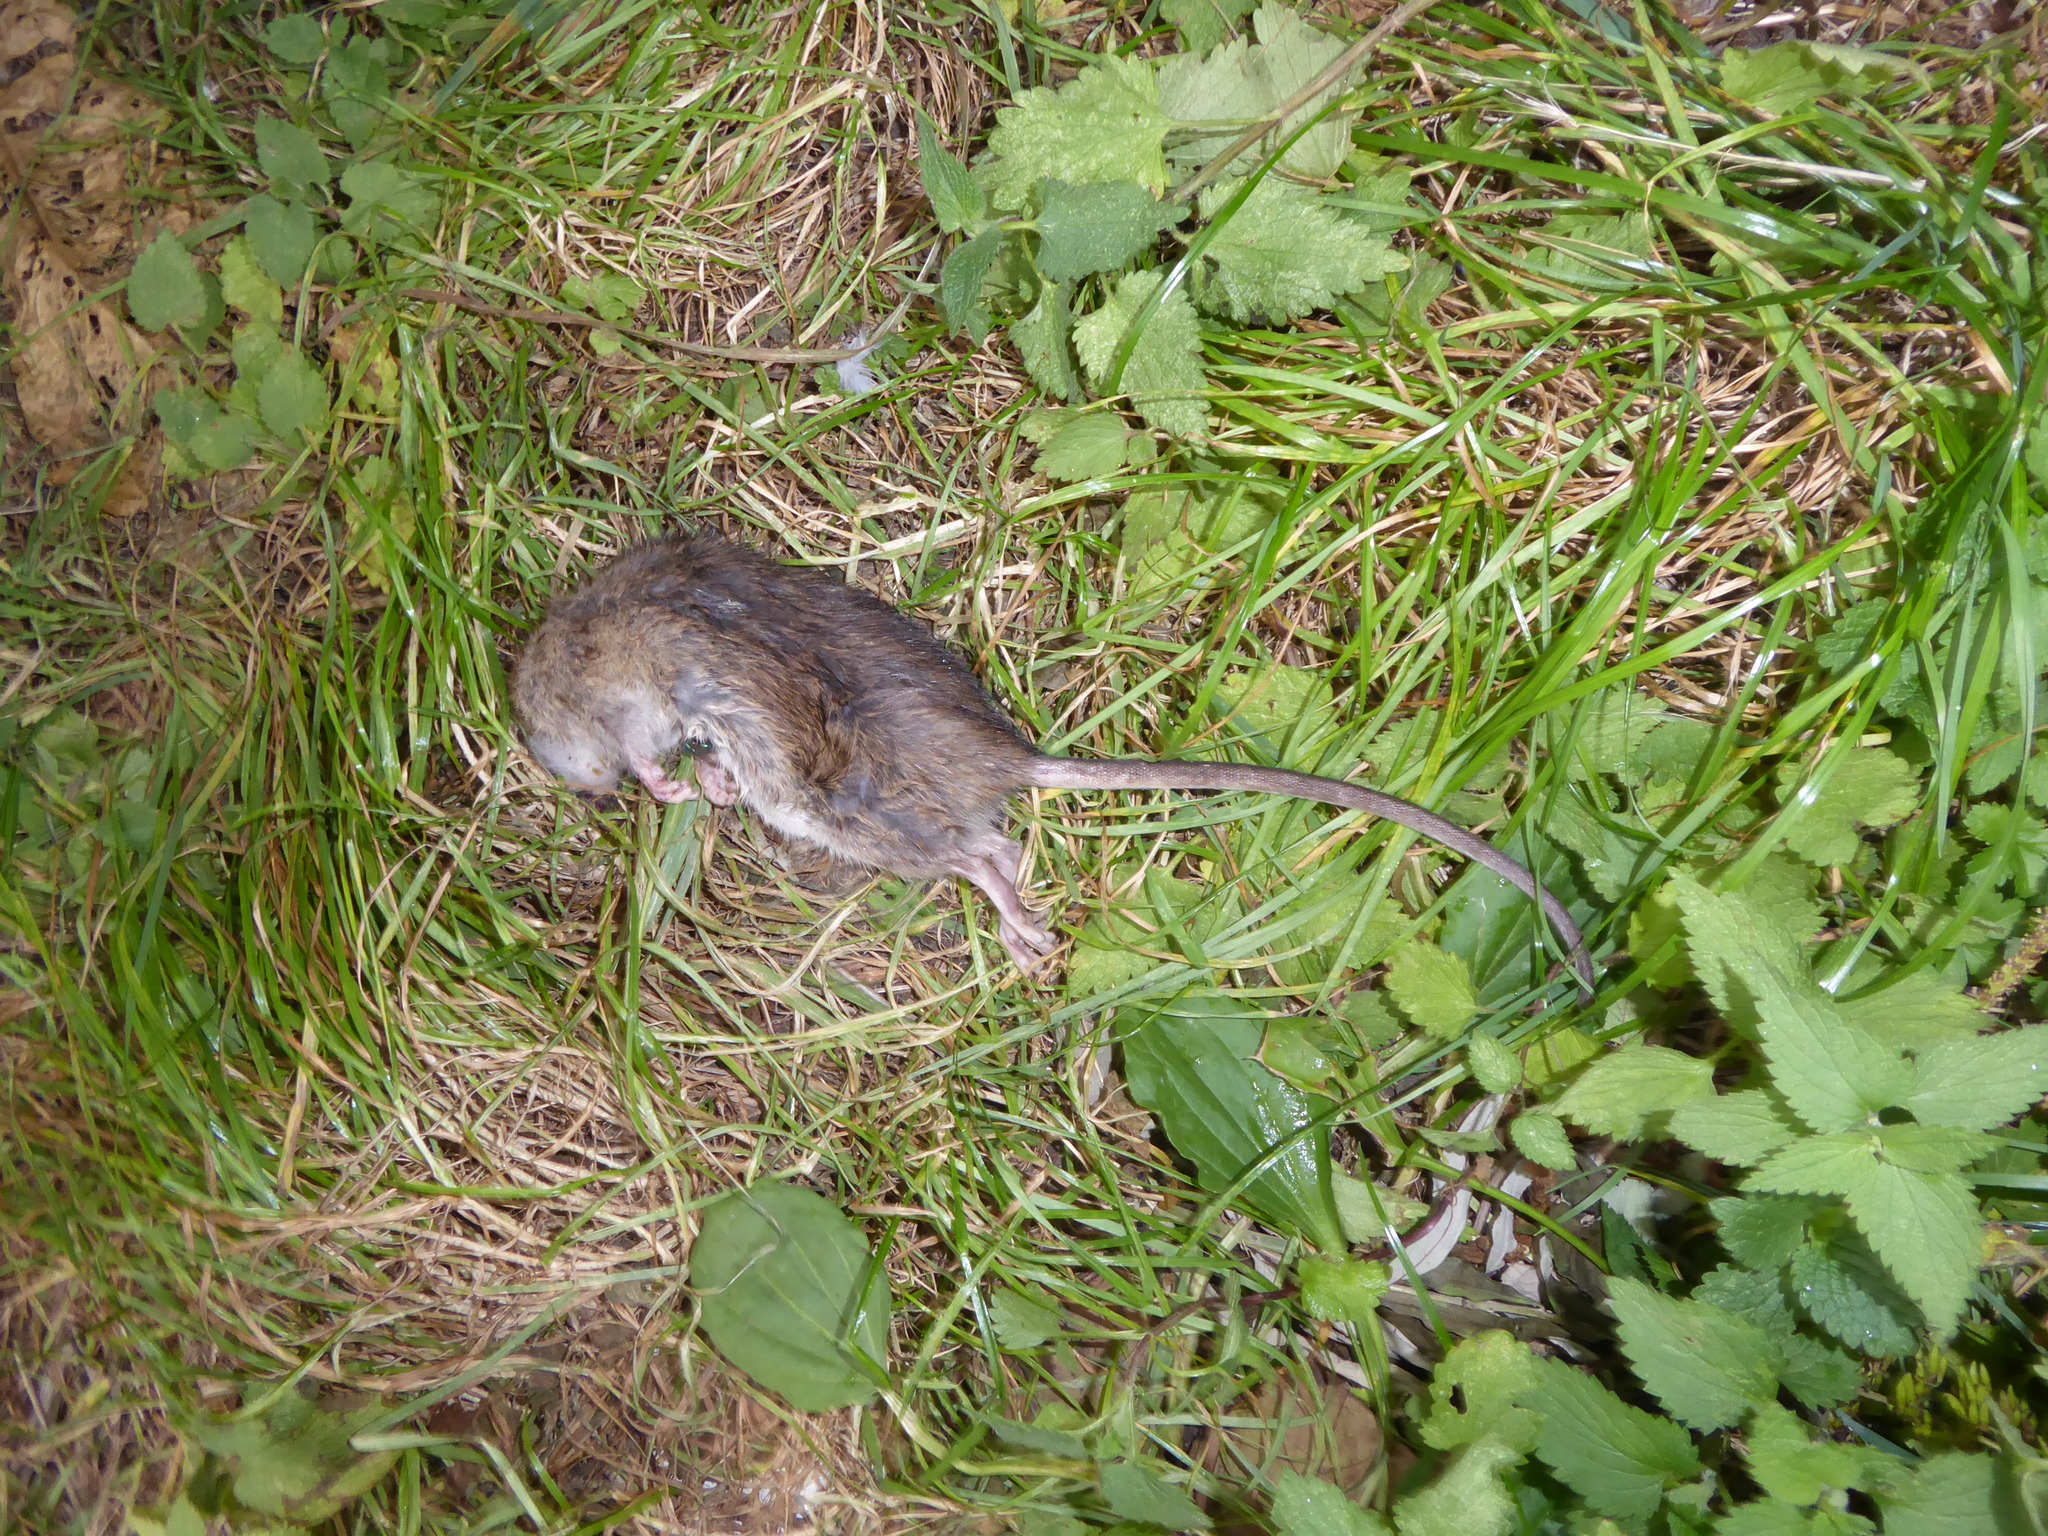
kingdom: Animalia
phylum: Chordata
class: Mammalia
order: Rodentia
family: Muridae
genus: Rattus
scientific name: Rattus norvegicus
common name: Brown rat
